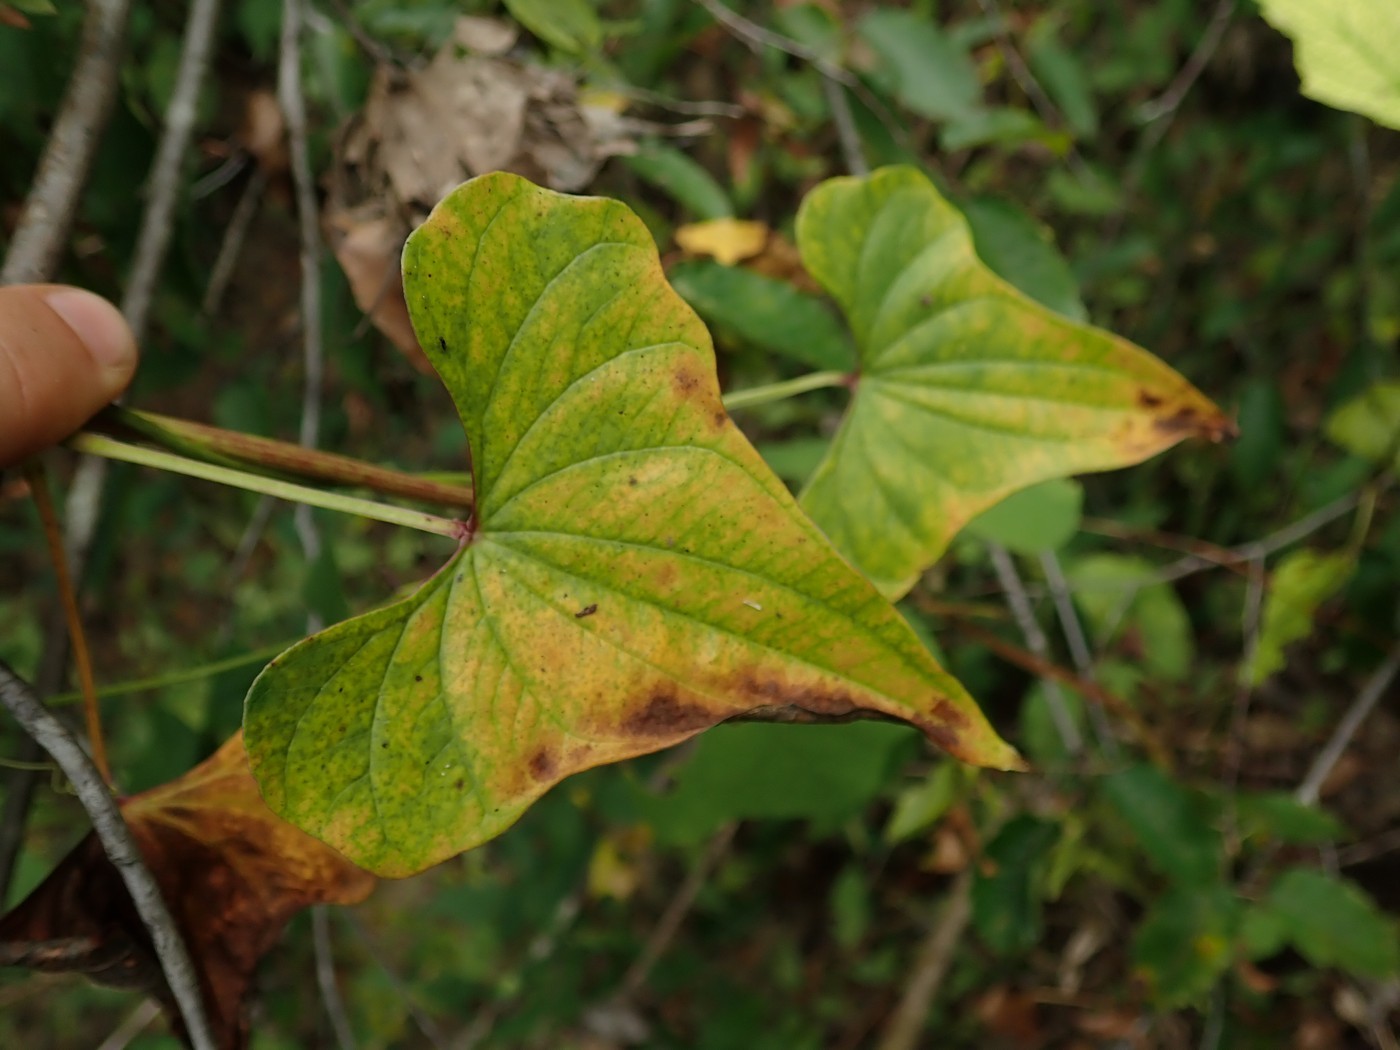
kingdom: Plantae
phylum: Tracheophyta
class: Liliopsida
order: Dioscoreales
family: Dioscoreaceae
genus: Dioscorea
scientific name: Dioscorea polystachya
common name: Chinese yam
